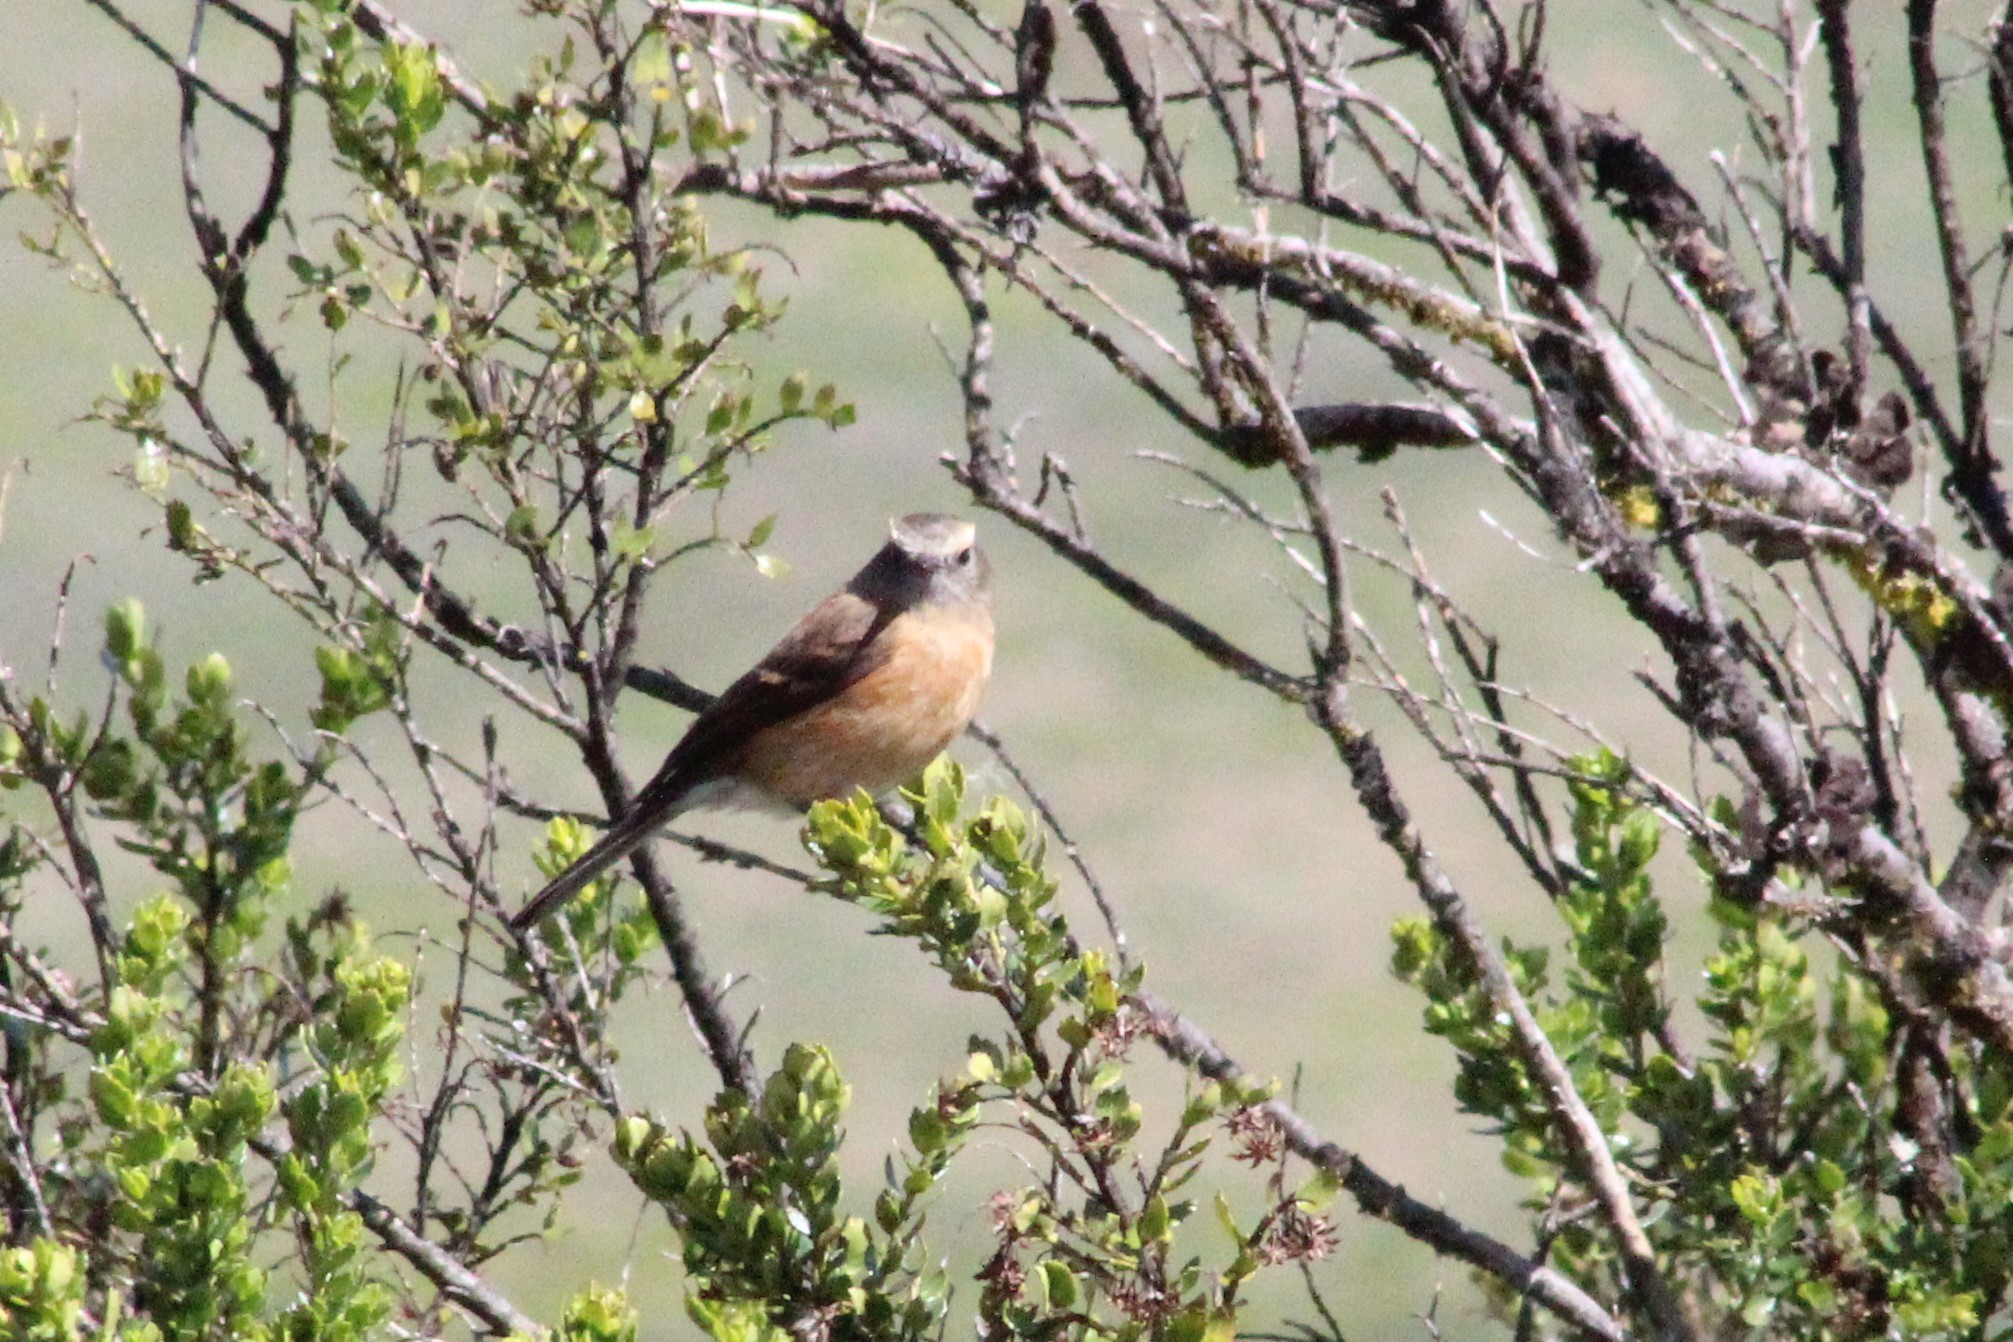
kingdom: Animalia
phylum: Chordata
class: Aves
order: Passeriformes
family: Tyrannidae
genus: Ochthoeca
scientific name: Ochthoeca fumicolor
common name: Brown-backed chat-tyrant
